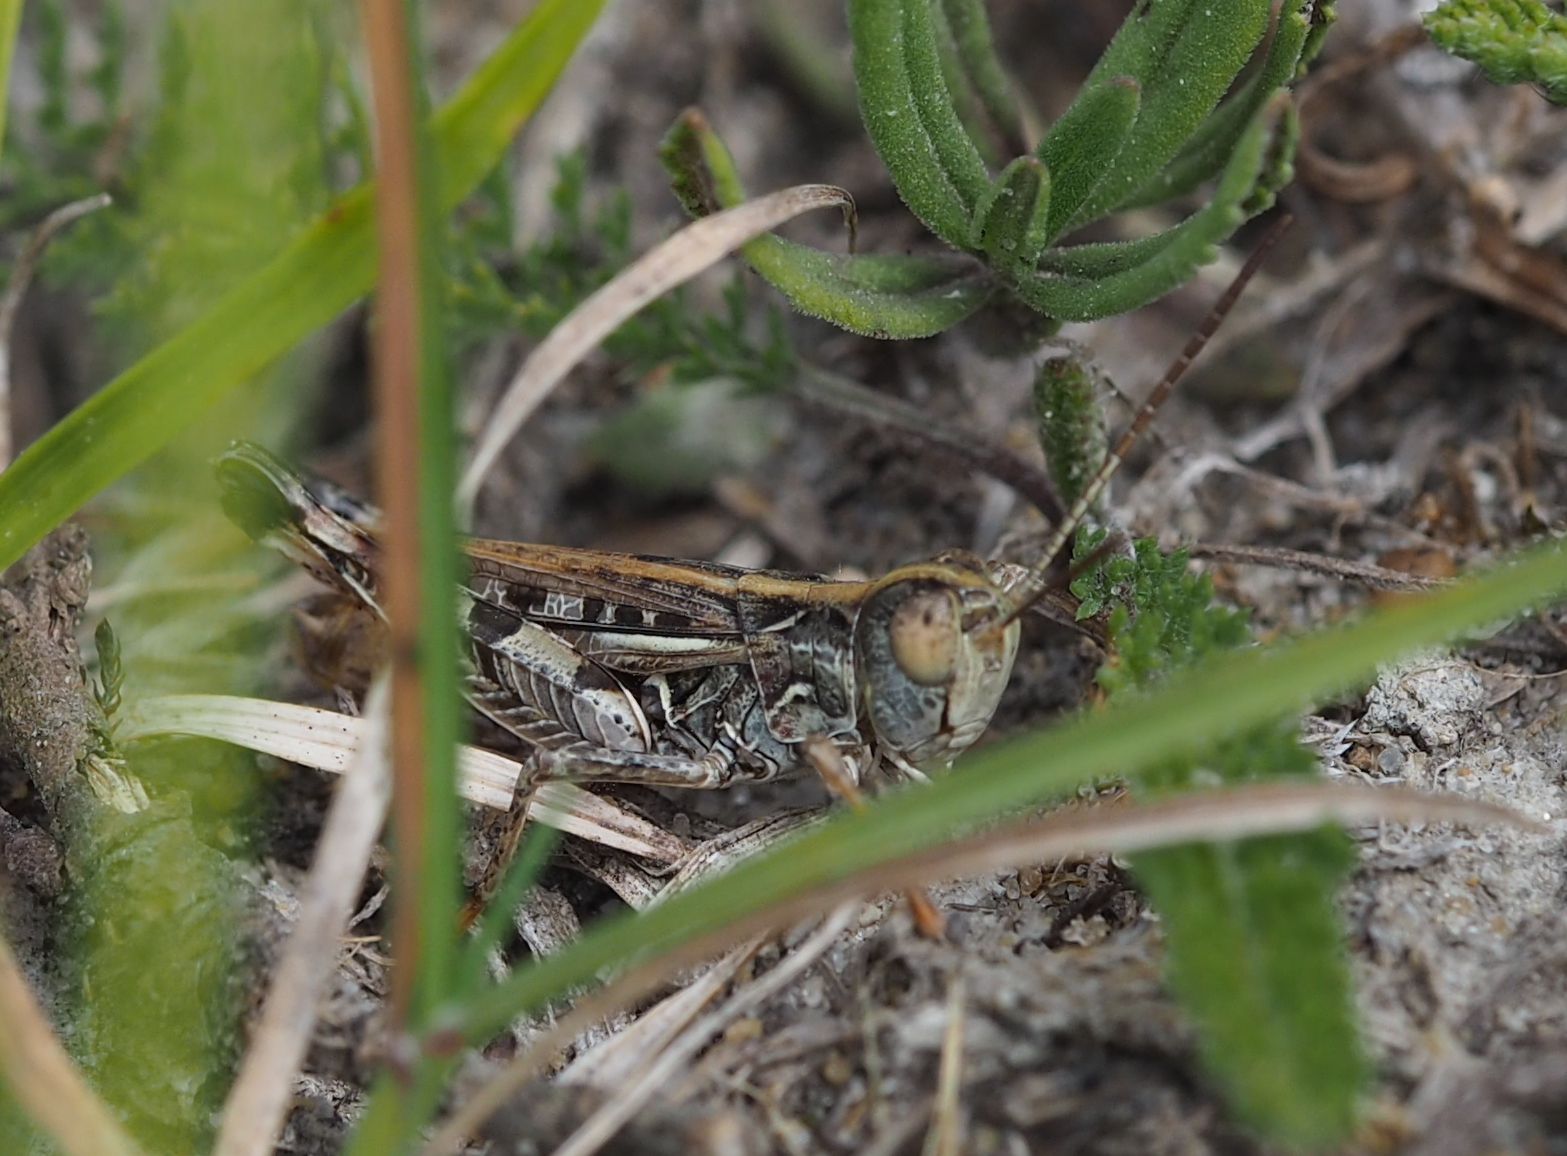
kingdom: Animalia
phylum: Arthropoda
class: Insecta
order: Orthoptera
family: Acrididae
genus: Dociostaurus
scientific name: Dociostaurus brevicollis
